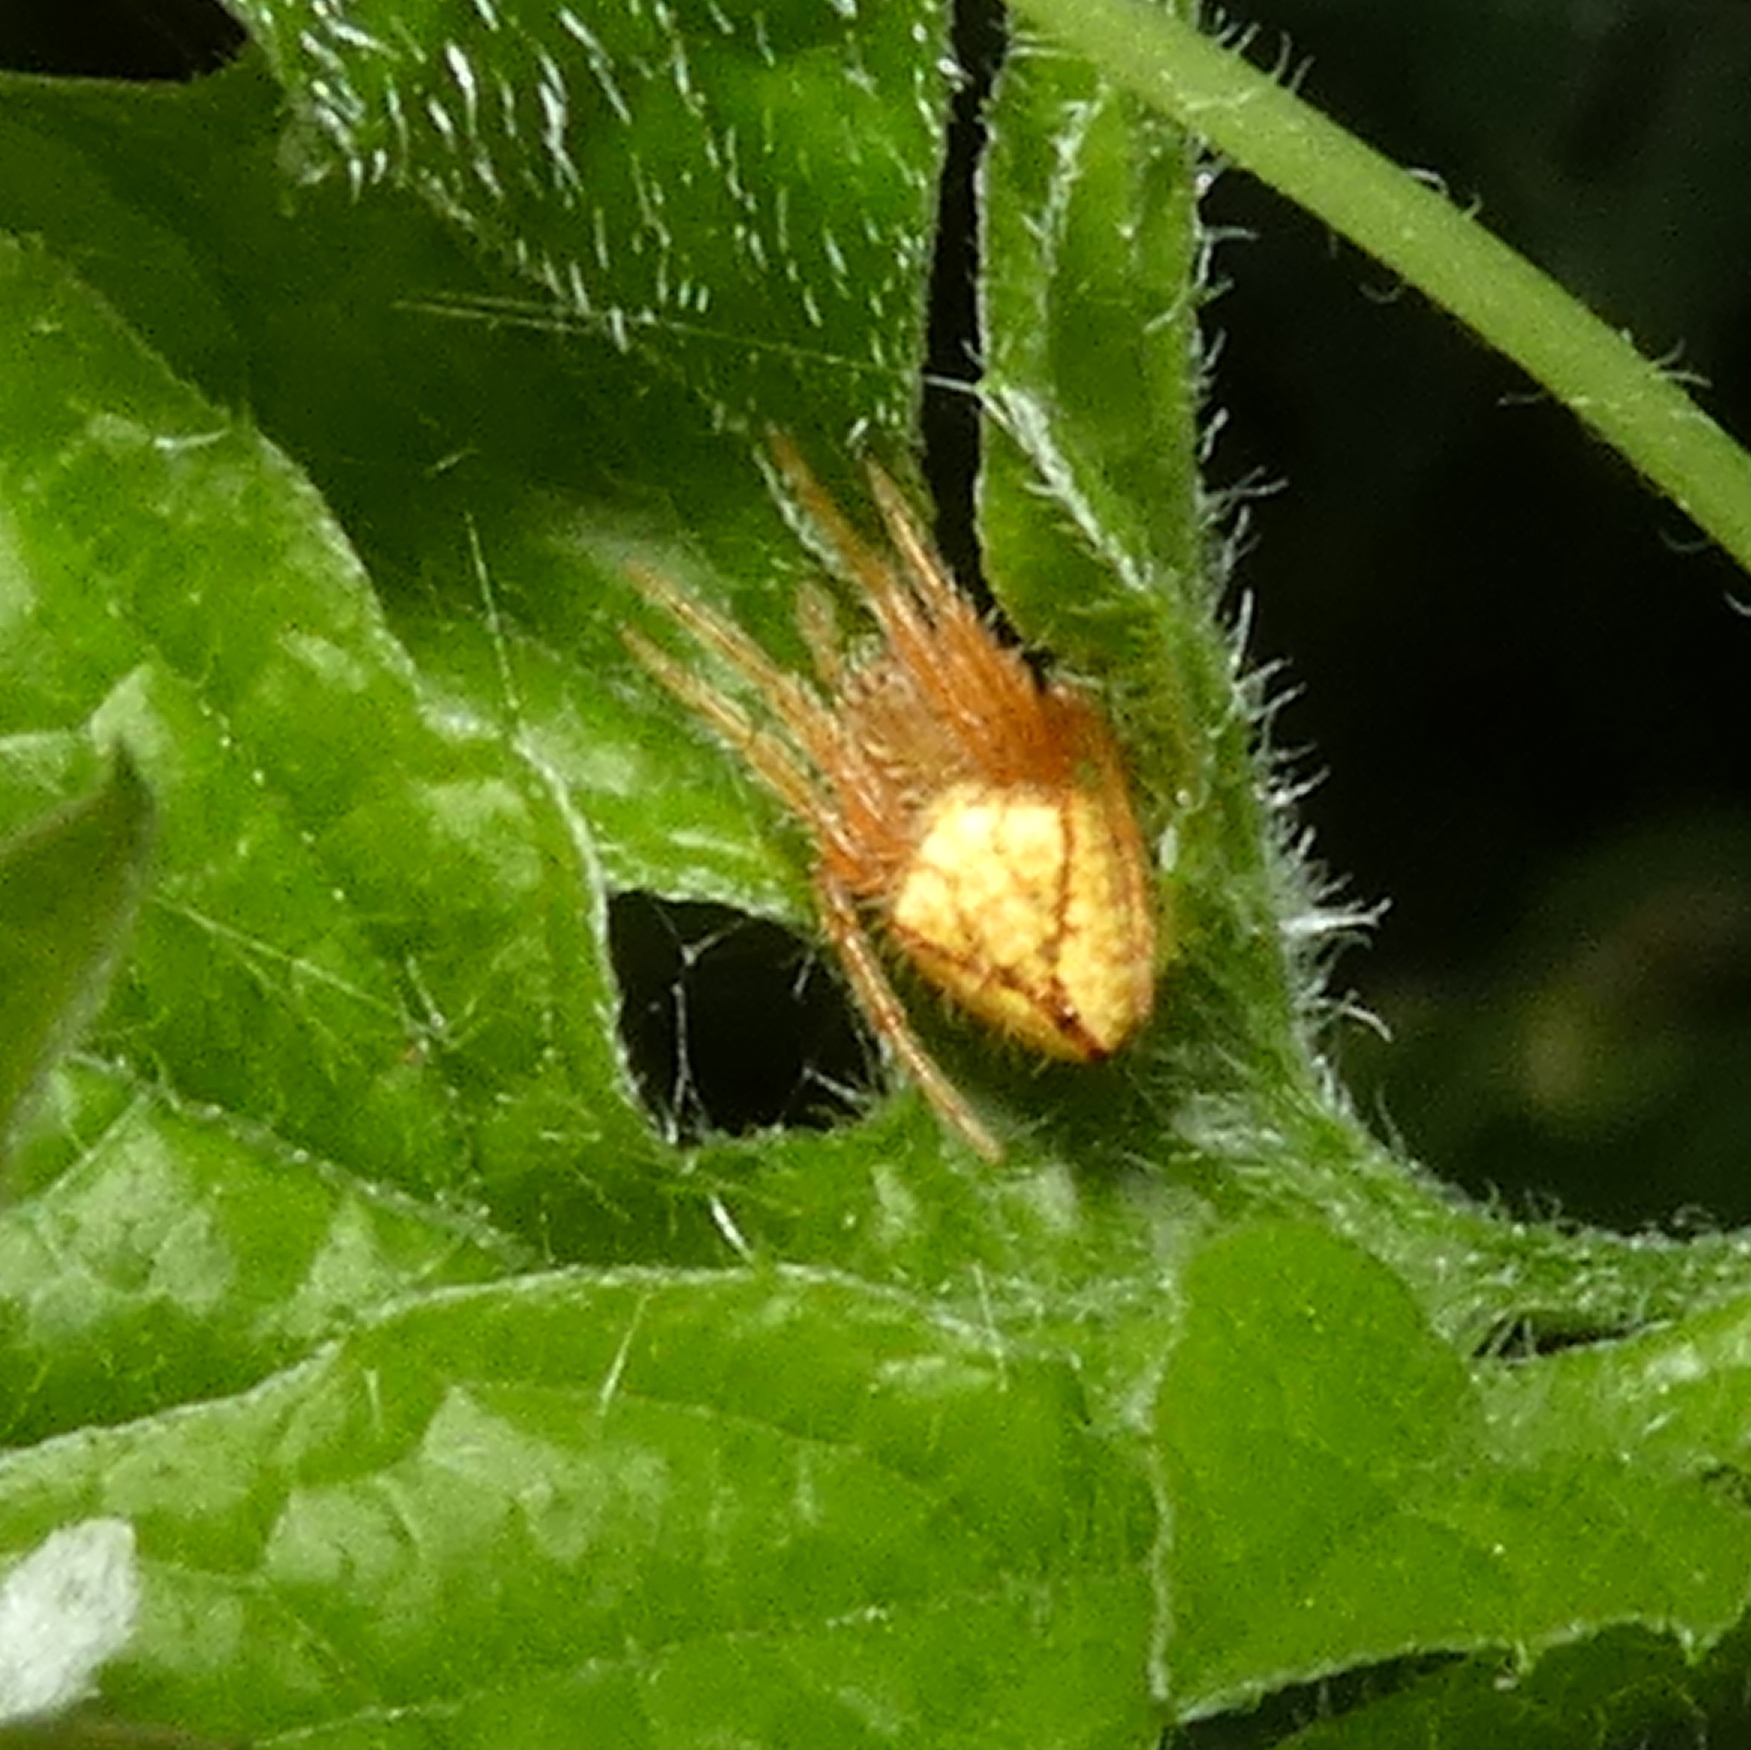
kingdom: Animalia
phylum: Arthropoda
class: Arachnida
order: Araneae
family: Araneidae
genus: Eriophora
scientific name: Eriophora edax
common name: Orb weavers
